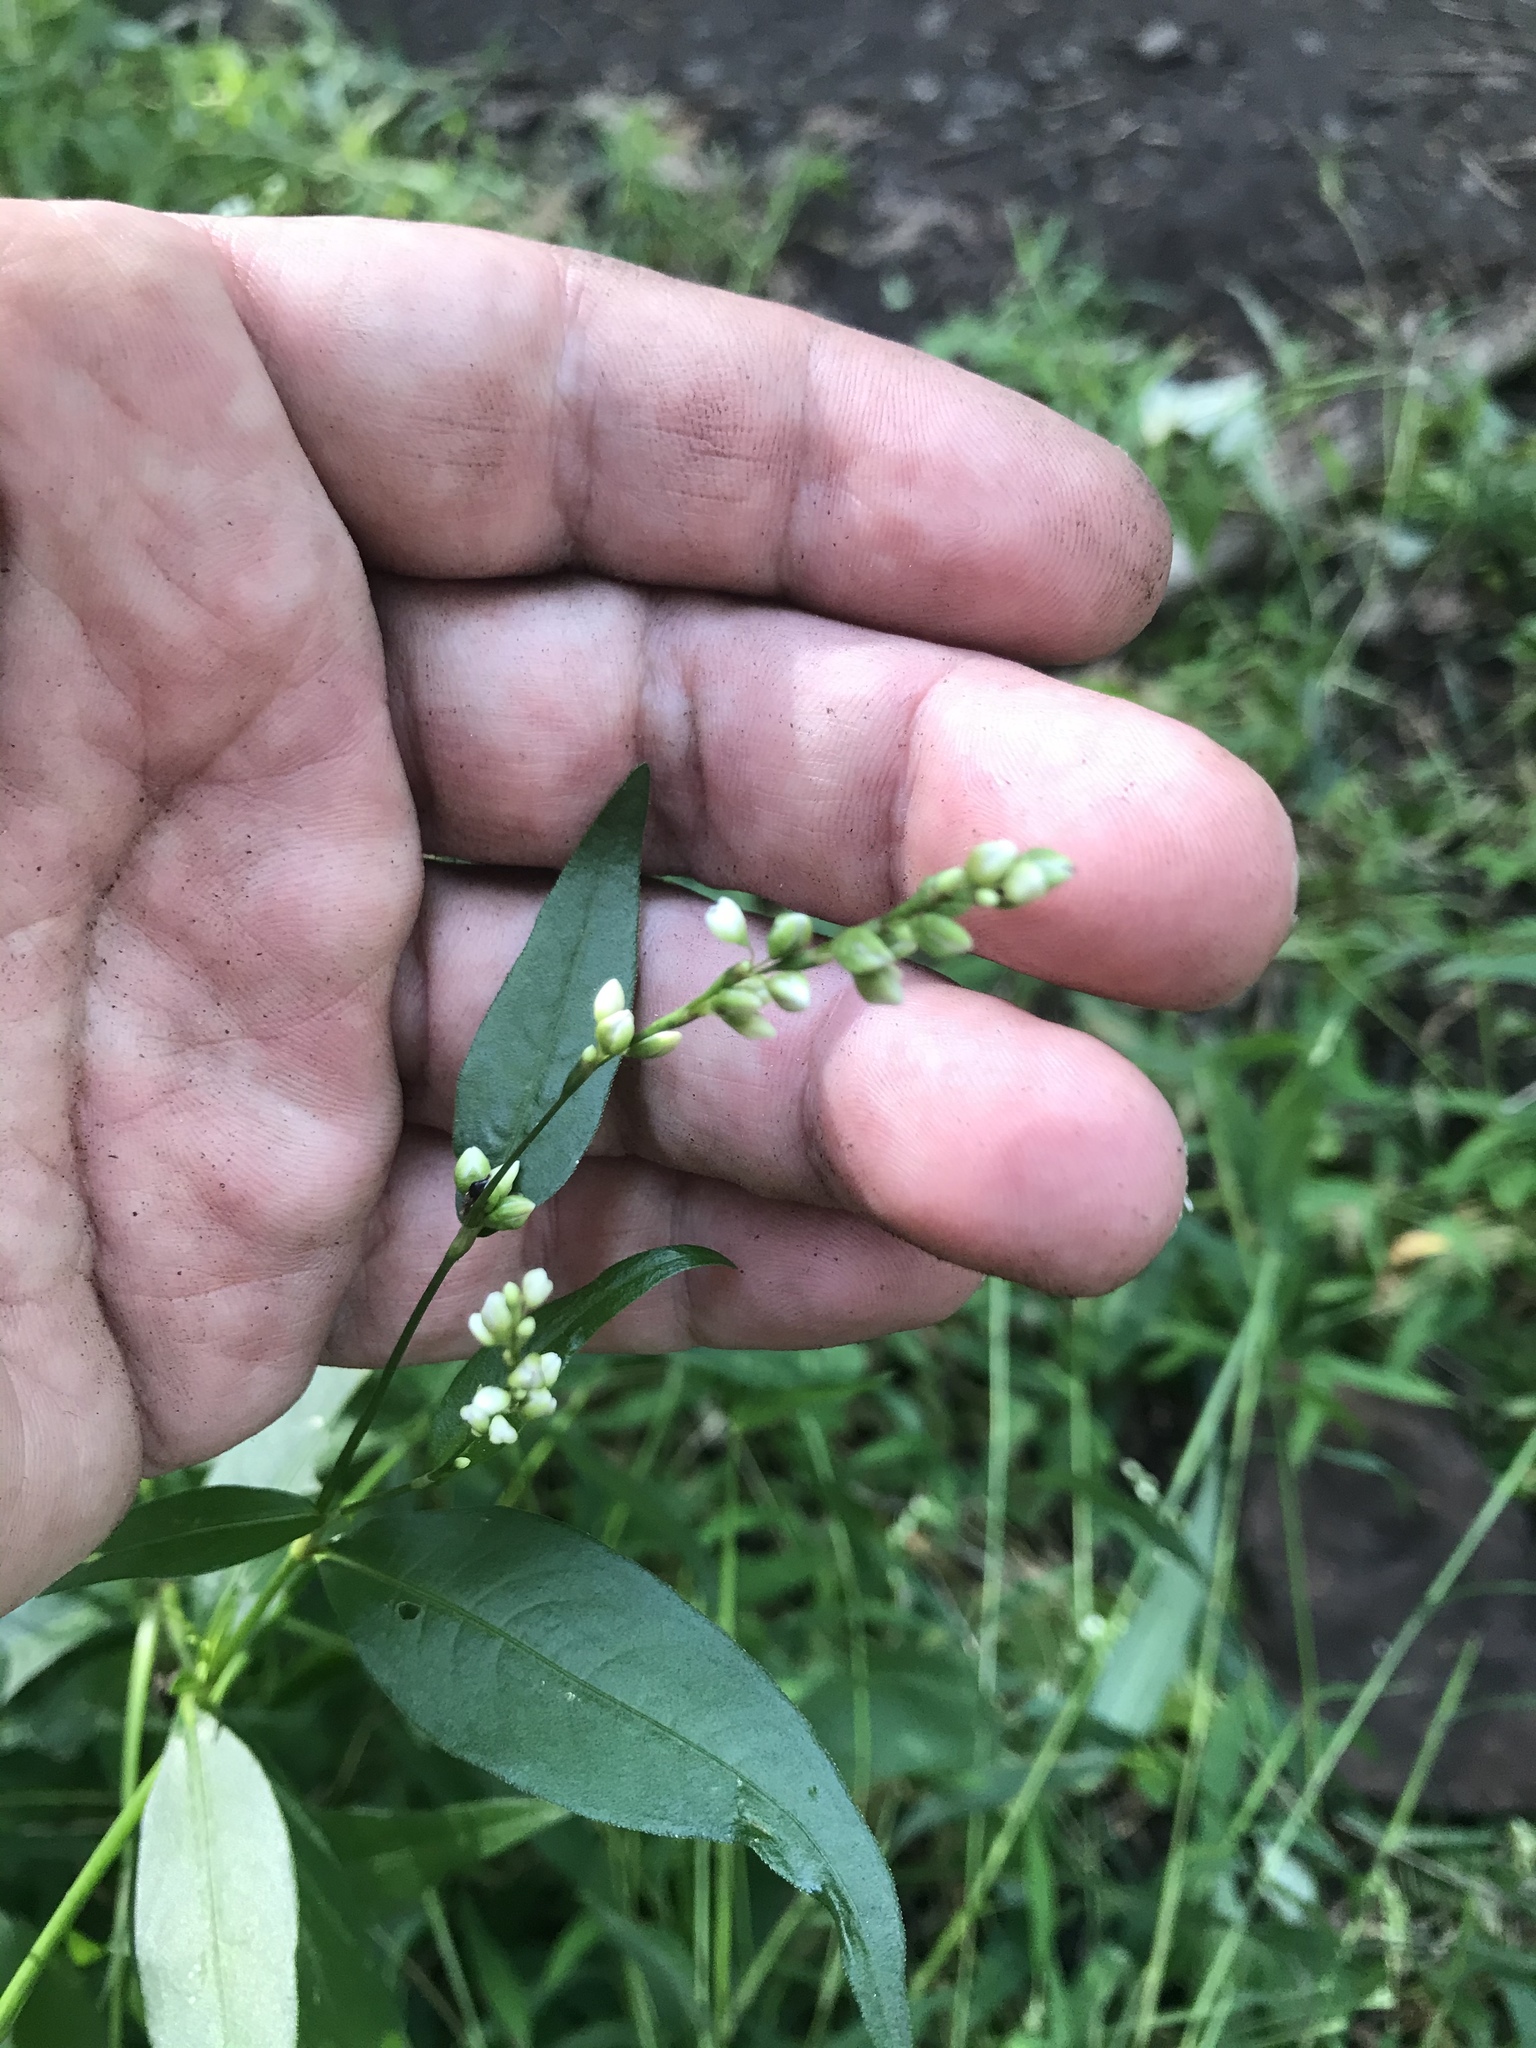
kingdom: Plantae
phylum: Tracheophyta
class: Magnoliopsida
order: Caryophyllales
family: Polygonaceae
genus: Persicaria
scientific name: Persicaria punctata
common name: Dotted smartweed
